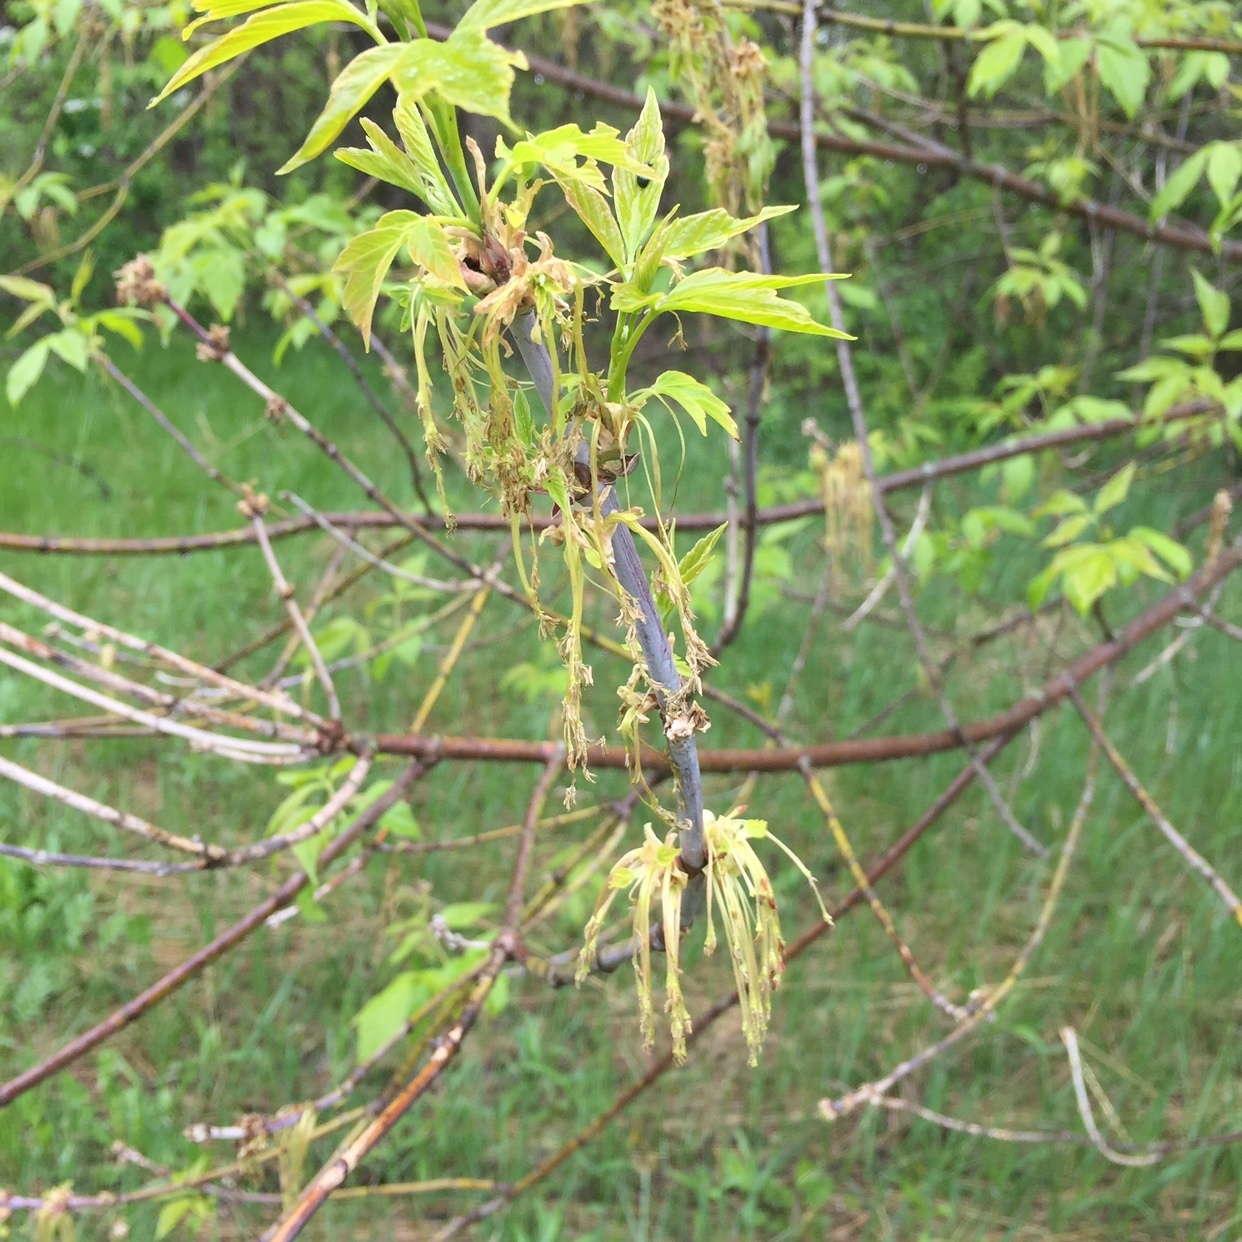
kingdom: Plantae
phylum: Tracheophyta
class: Magnoliopsida
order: Sapindales
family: Sapindaceae
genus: Acer
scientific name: Acer negundo
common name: Ashleaf maple
